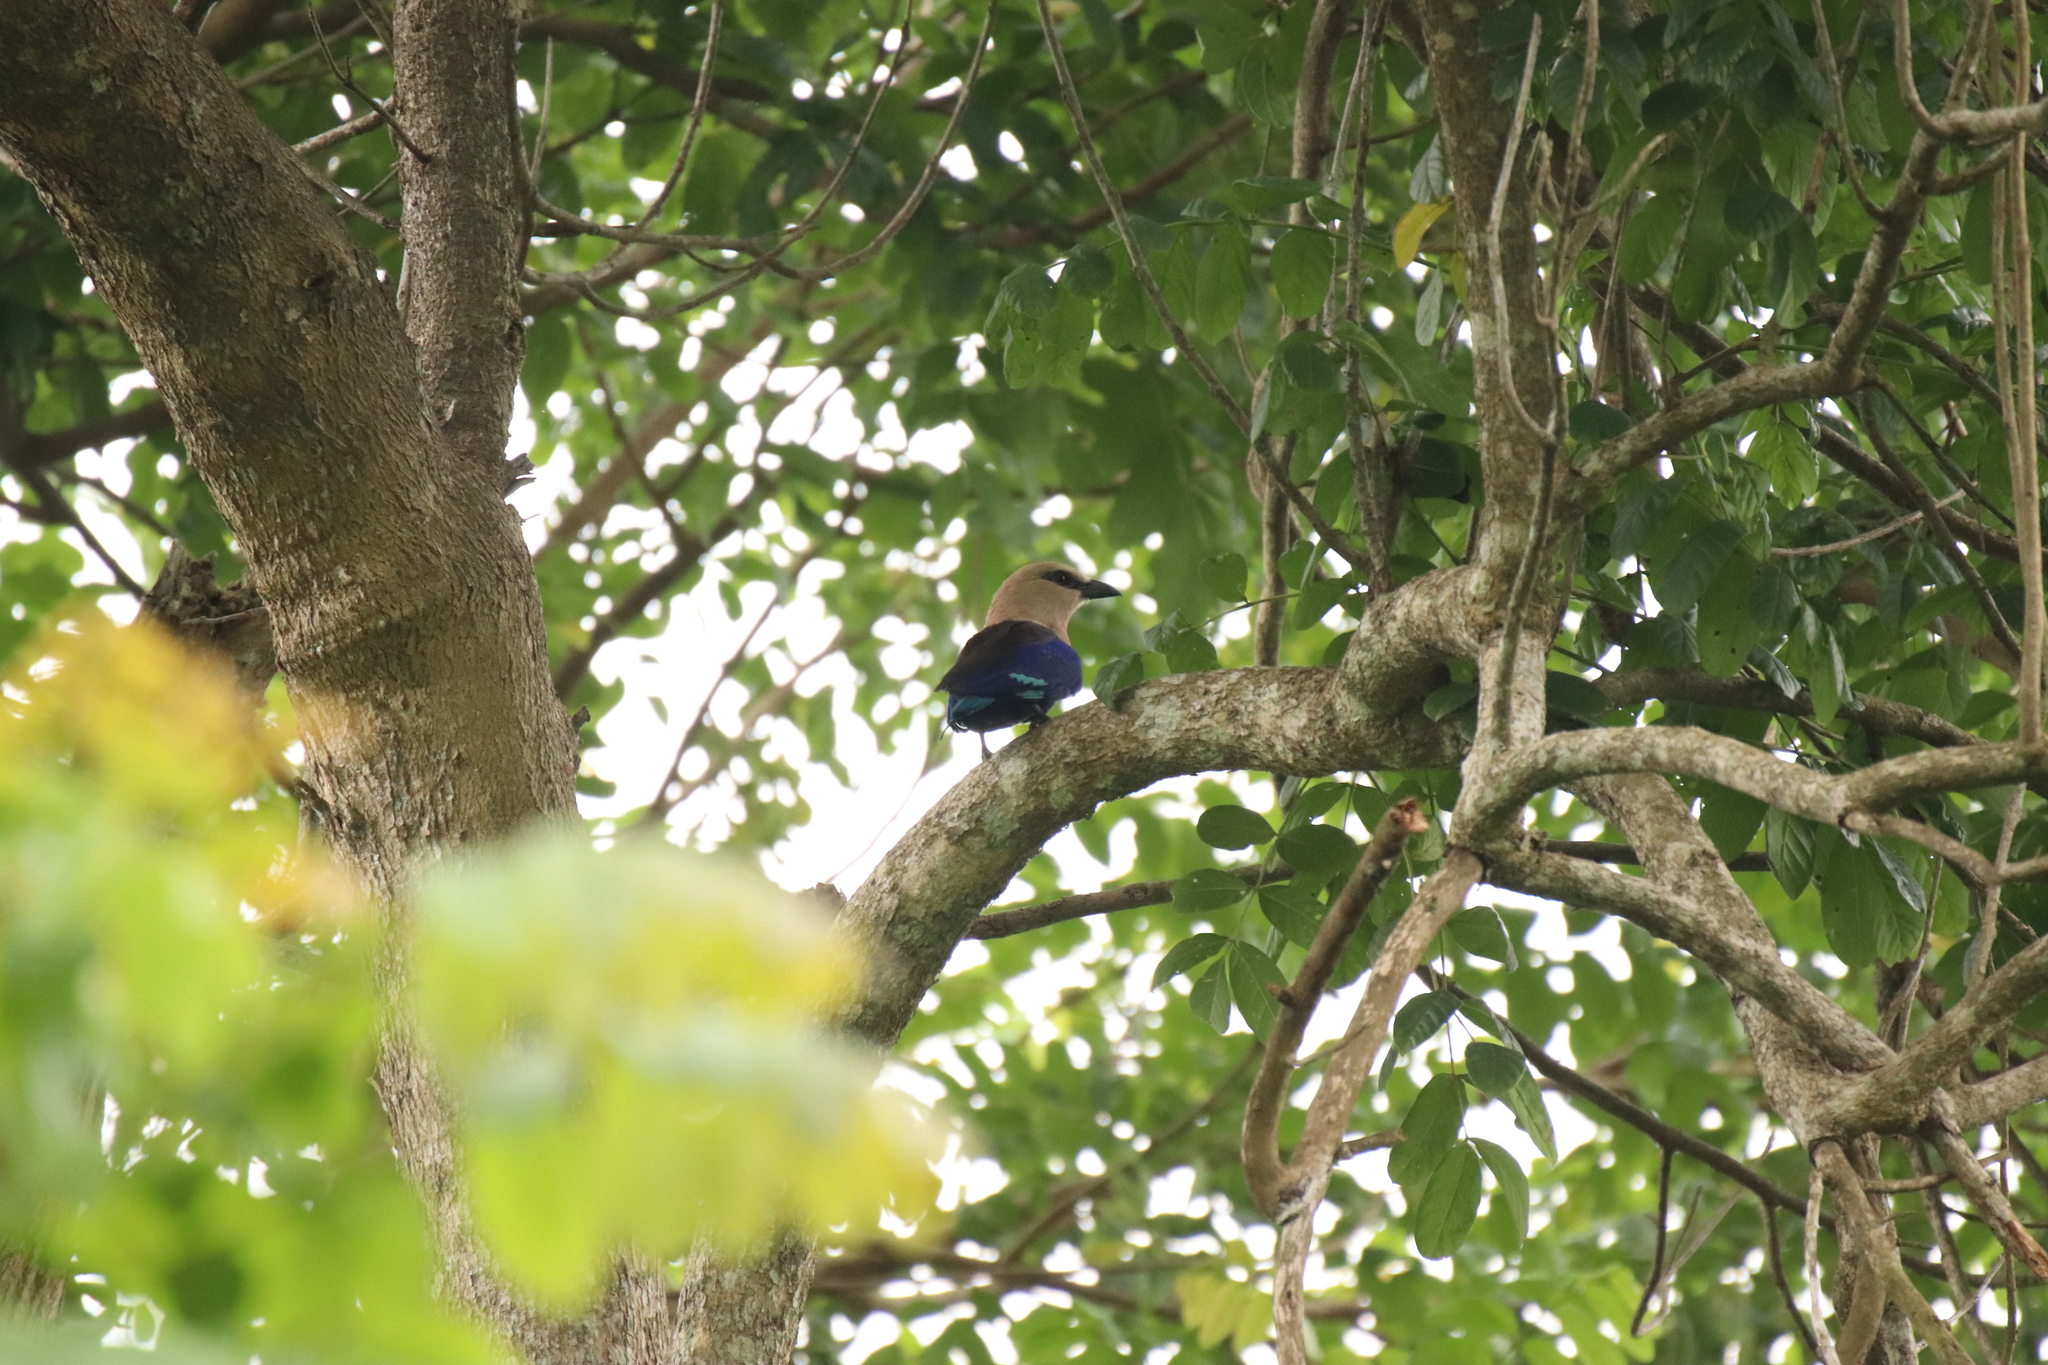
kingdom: Animalia
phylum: Chordata
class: Aves
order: Coraciiformes
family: Coraciidae
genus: Coracias
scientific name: Coracias cyanogaster
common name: Blue-bellied roller
